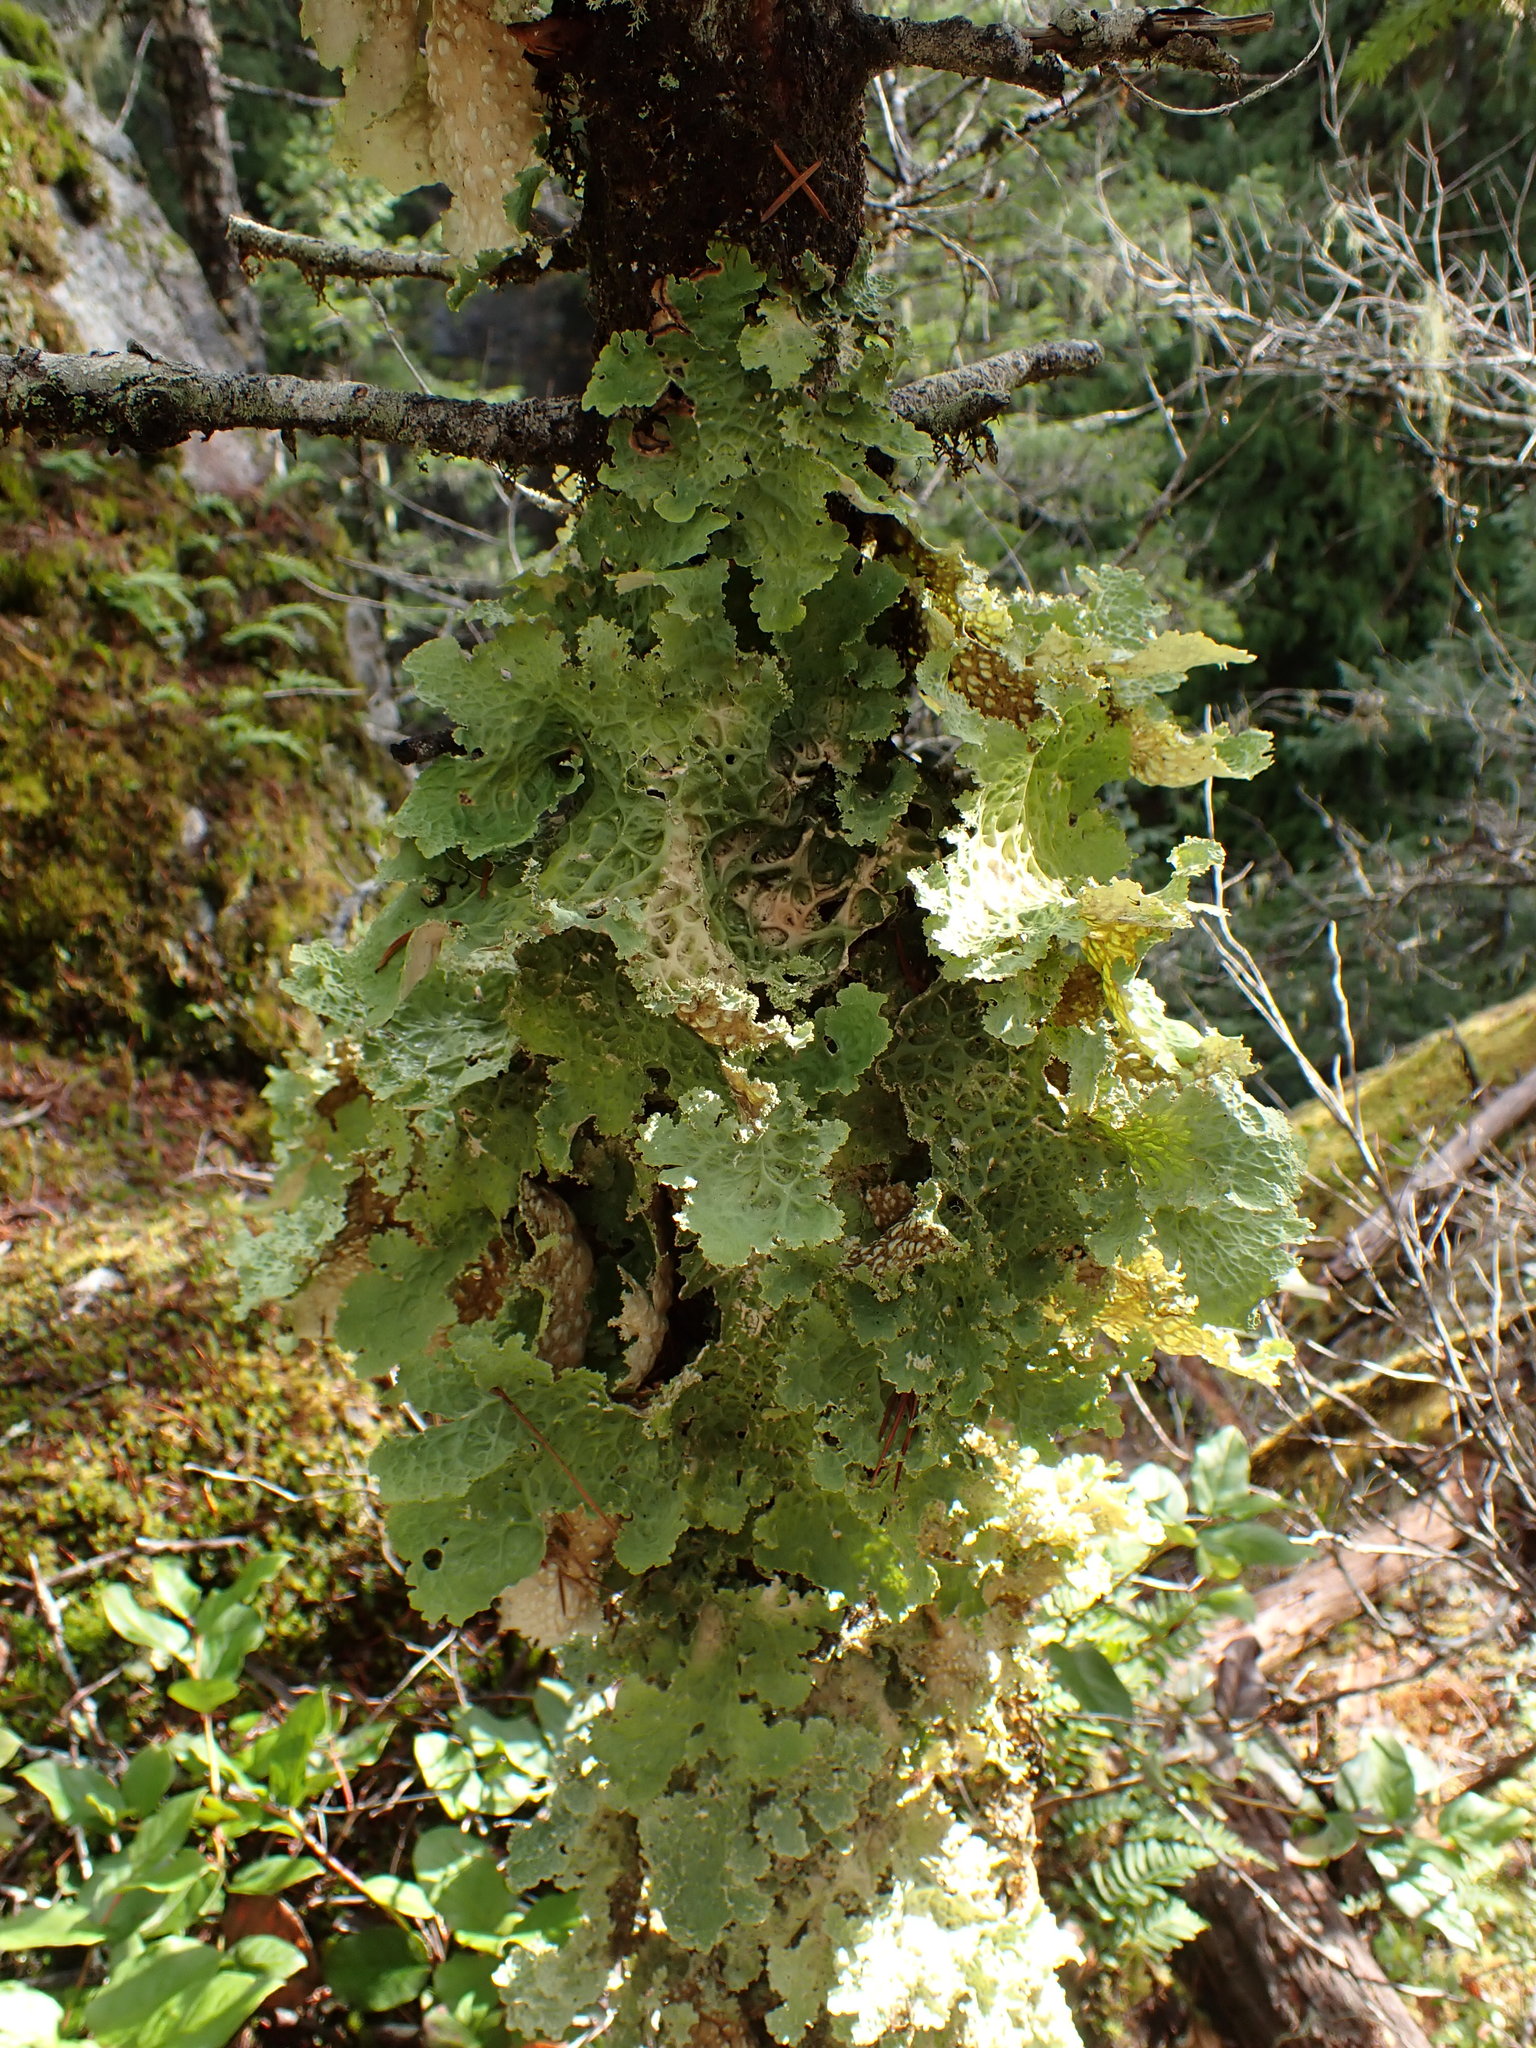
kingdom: Fungi
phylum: Ascomycota
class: Lecanoromycetes
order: Peltigerales
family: Lobariaceae
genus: Lobaria
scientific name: Lobaria oregana
